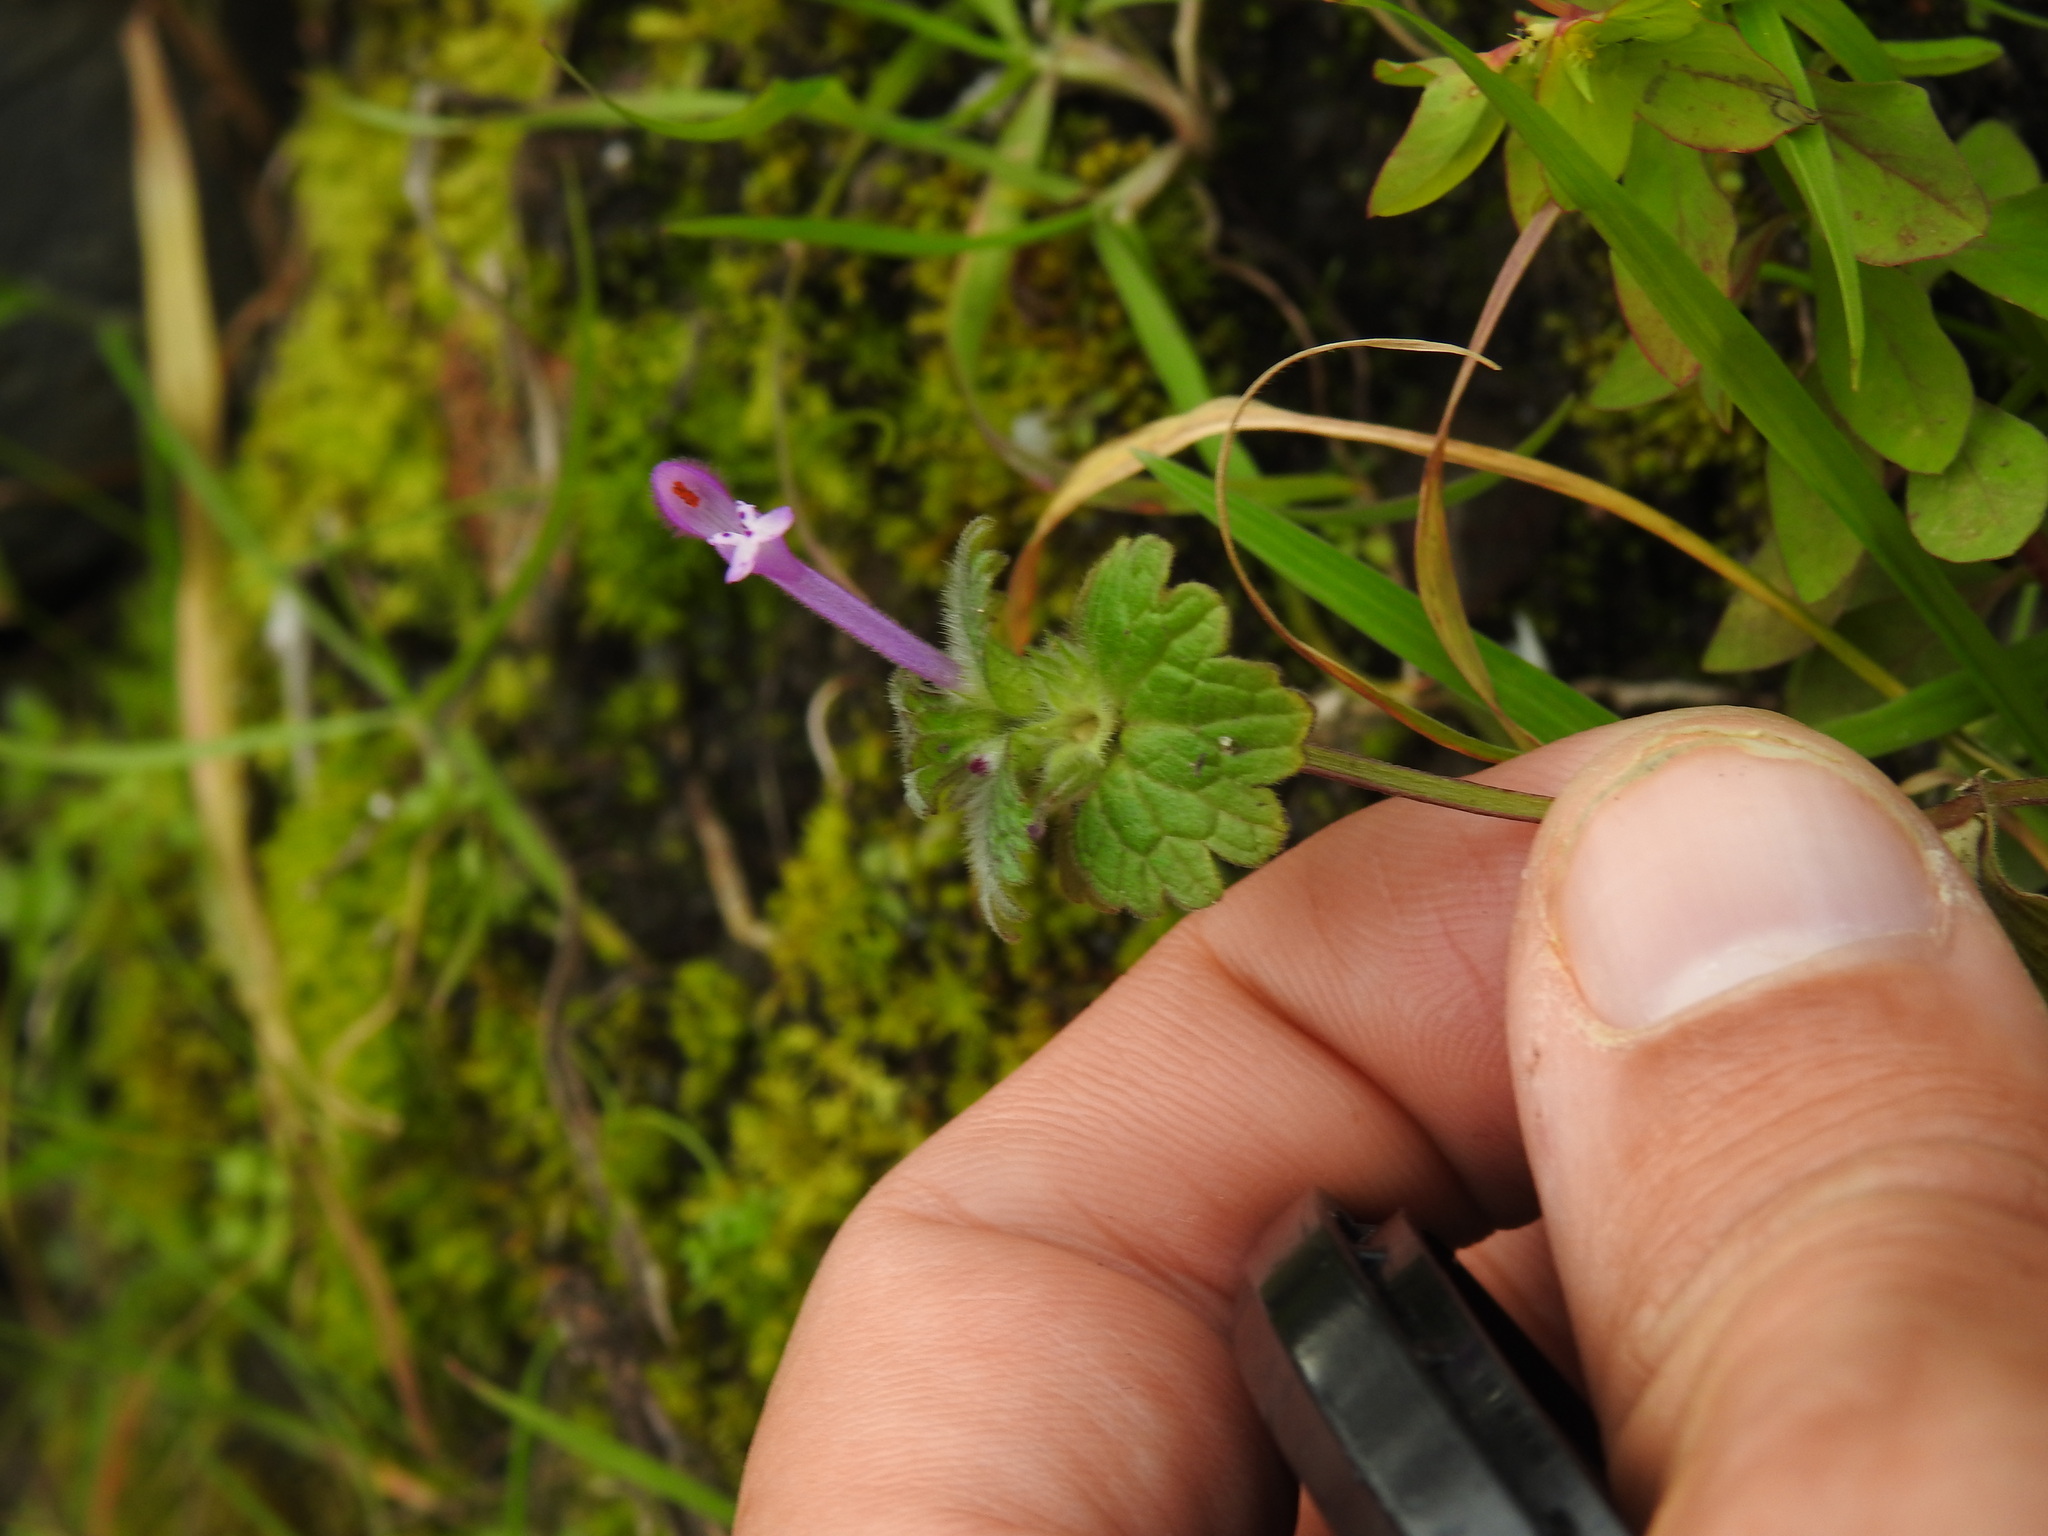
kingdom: Plantae
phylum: Tracheophyta
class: Magnoliopsida
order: Lamiales
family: Lamiaceae
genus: Lamium
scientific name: Lamium amplexicaule
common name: Henbit dead-nettle
